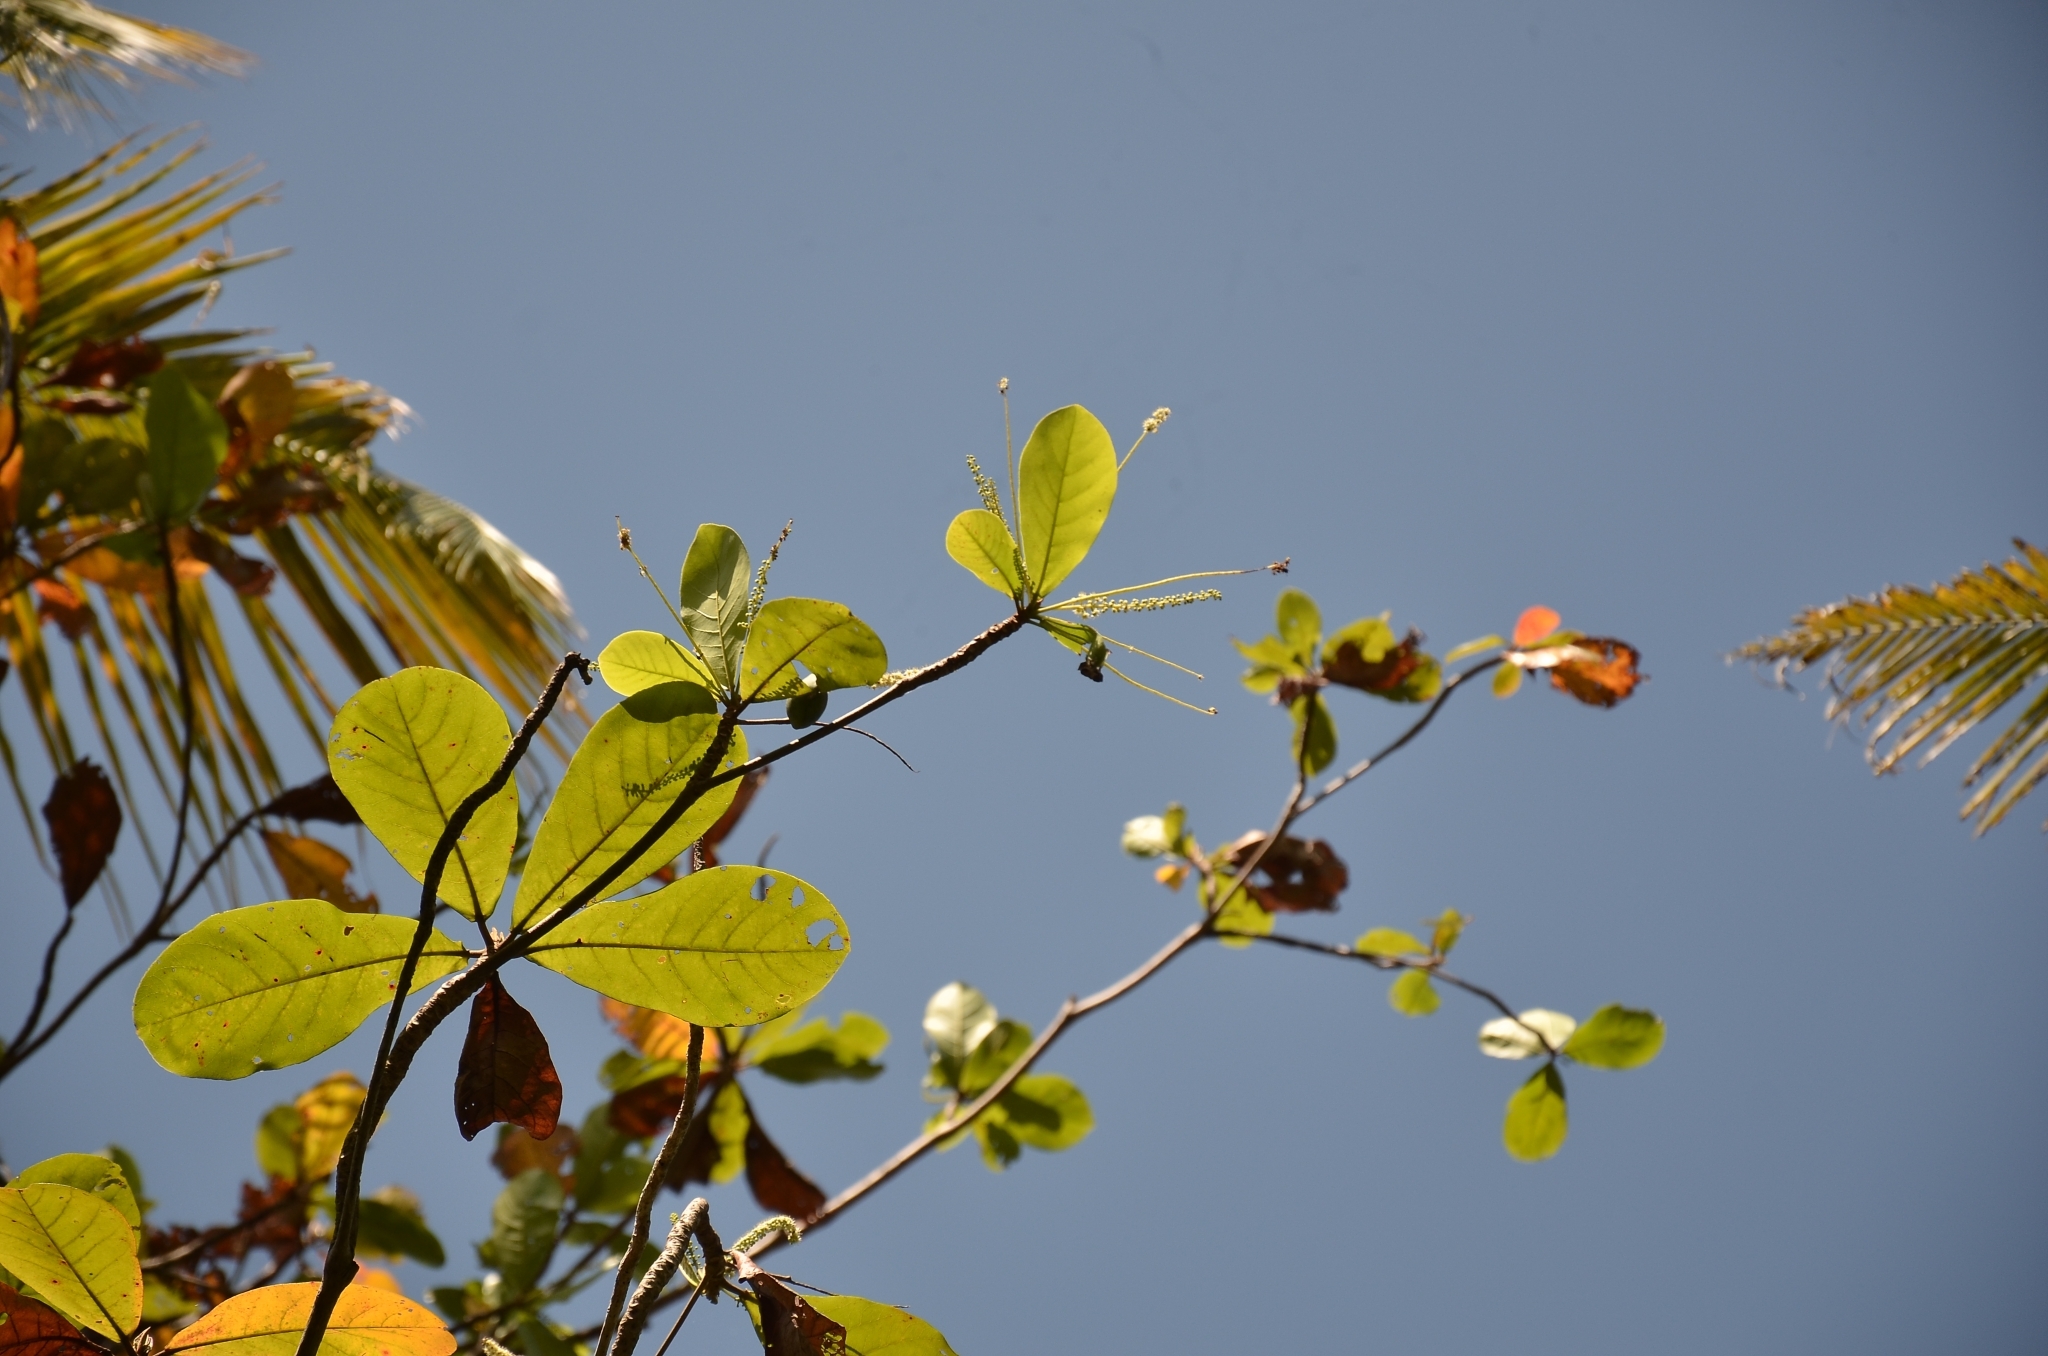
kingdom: Plantae
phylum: Tracheophyta
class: Magnoliopsida
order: Myrtales
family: Combretaceae
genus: Terminalia
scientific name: Terminalia catappa
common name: Tropical almond
